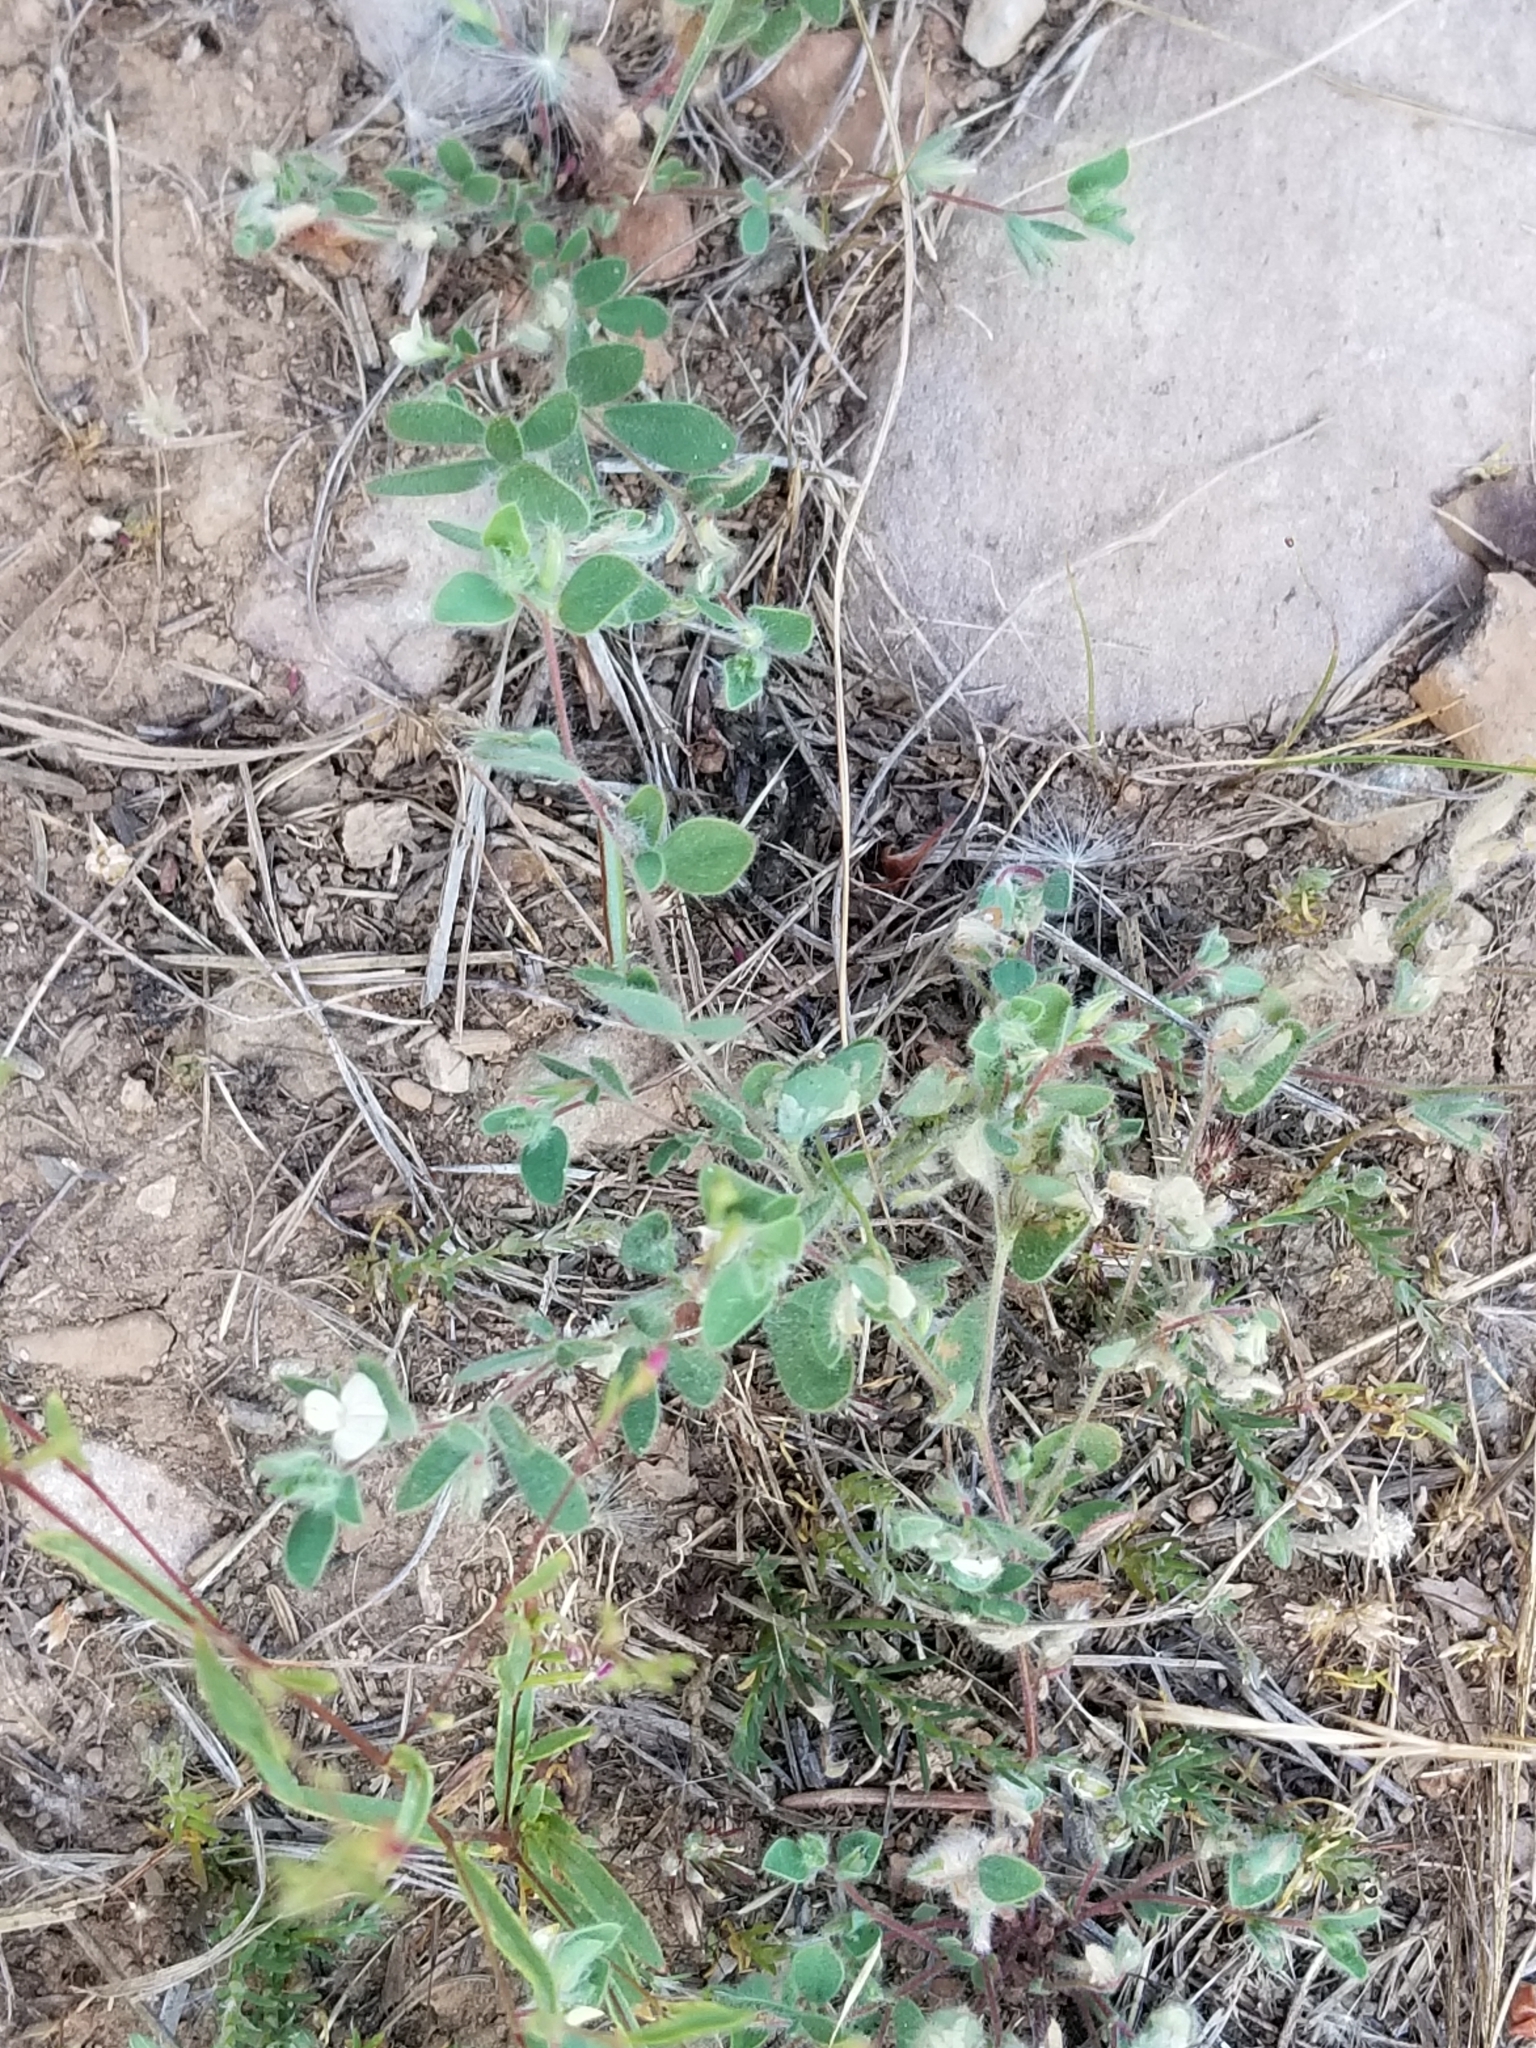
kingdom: Plantae
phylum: Tracheophyta
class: Magnoliopsida
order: Fabales
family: Fabaceae
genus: Acmispon
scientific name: Acmispon americanus
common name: American bird's-foot trefoil
